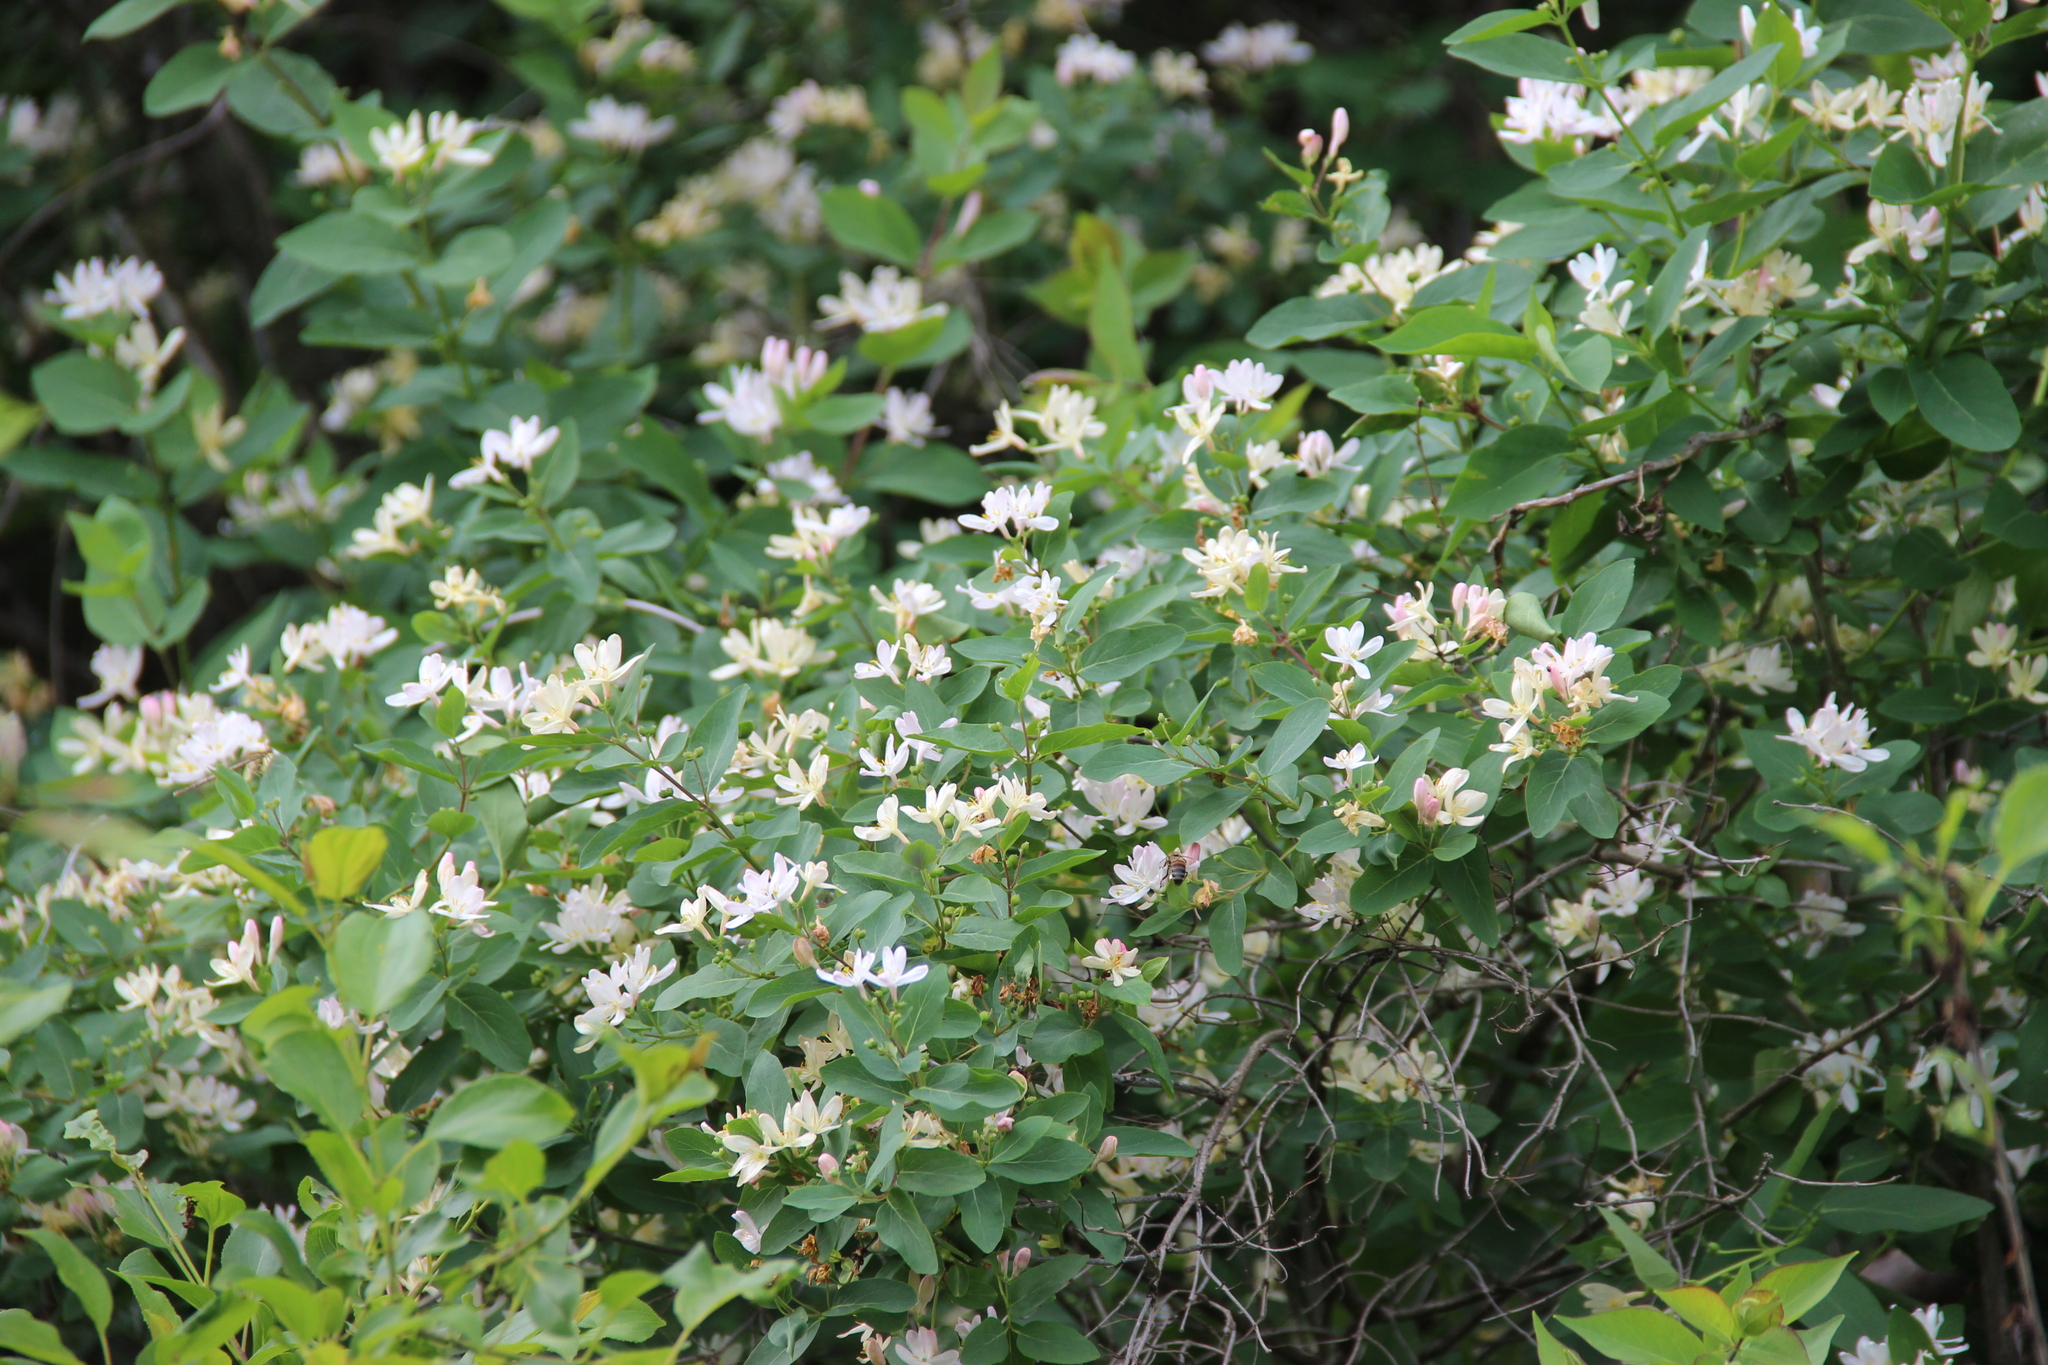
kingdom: Plantae
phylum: Tracheophyta
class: Magnoliopsida
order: Dipsacales
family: Caprifoliaceae
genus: Lonicera
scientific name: Lonicera tatarica
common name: Tatarian honeysuckle
